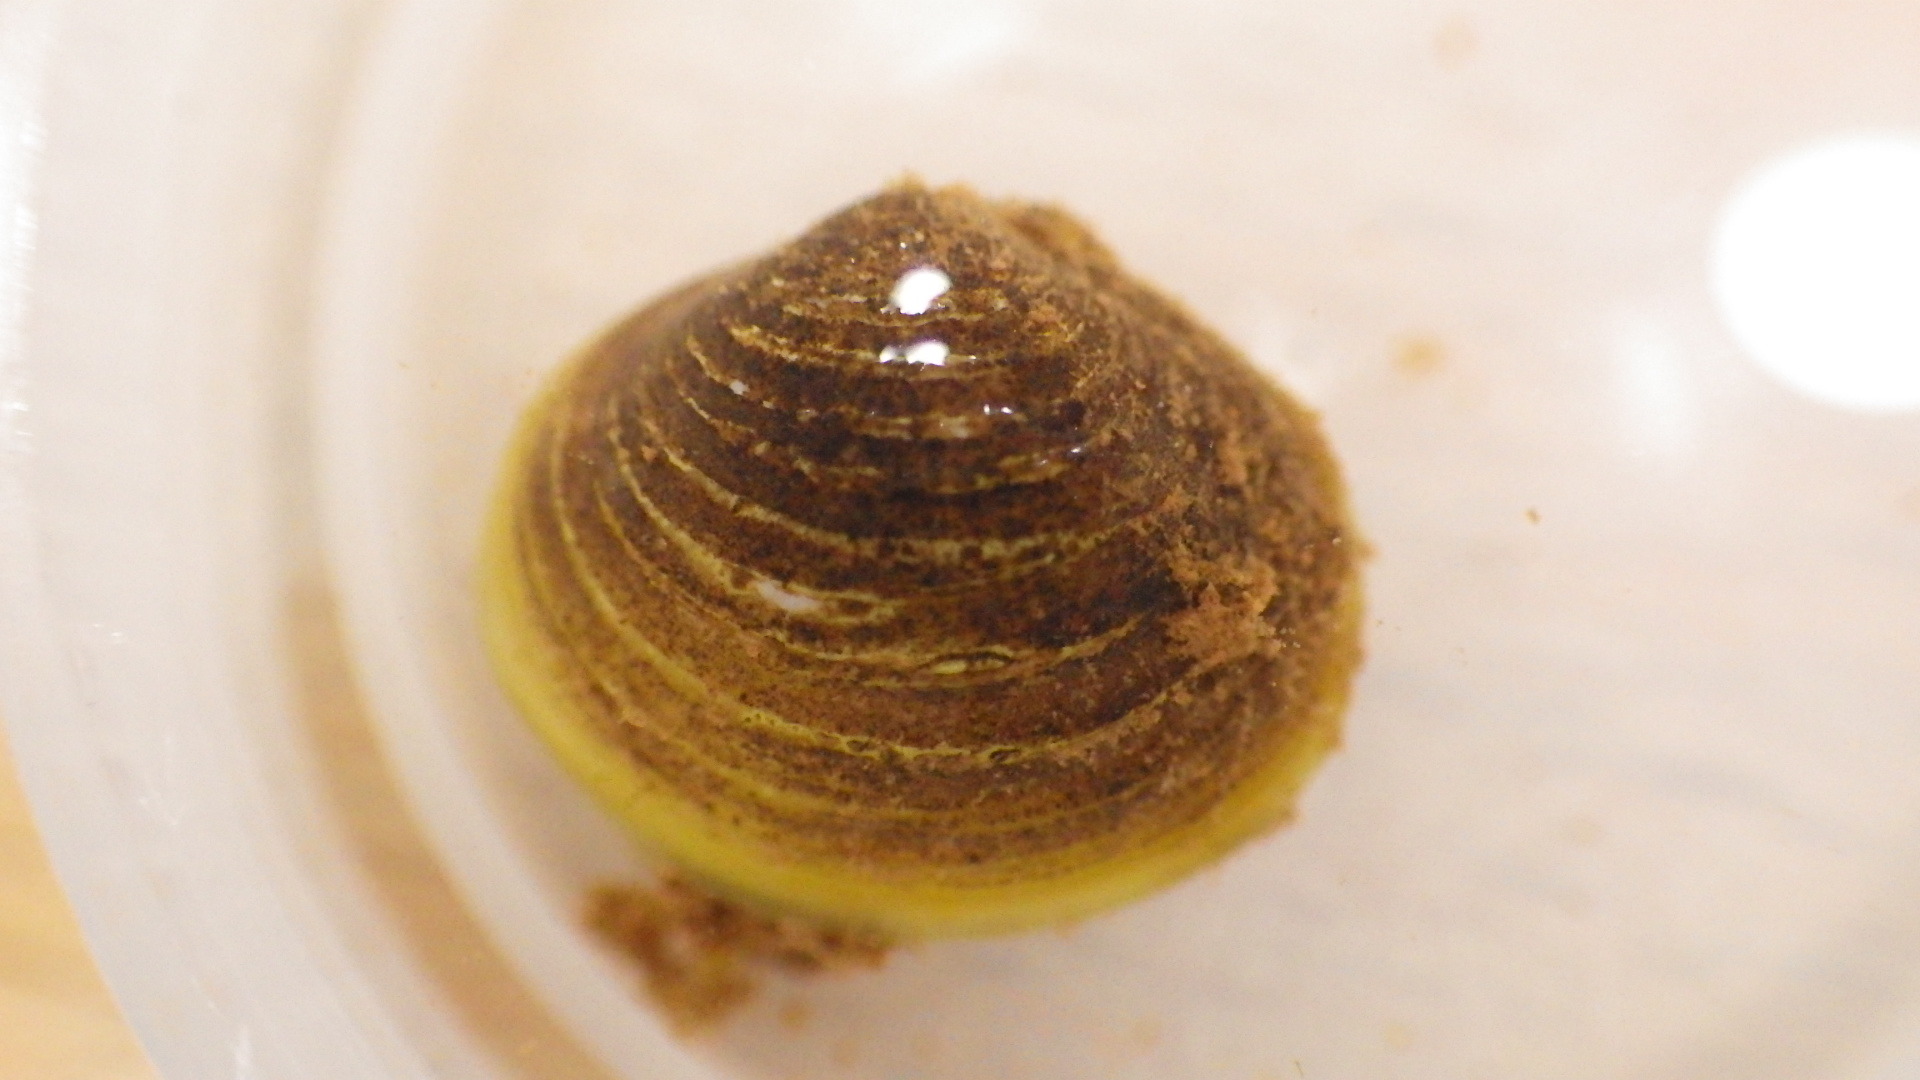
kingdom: Animalia
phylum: Mollusca
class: Bivalvia
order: Venerida
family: Cyrenidae
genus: Corbicula
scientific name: Corbicula fluminea
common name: Asian clam
